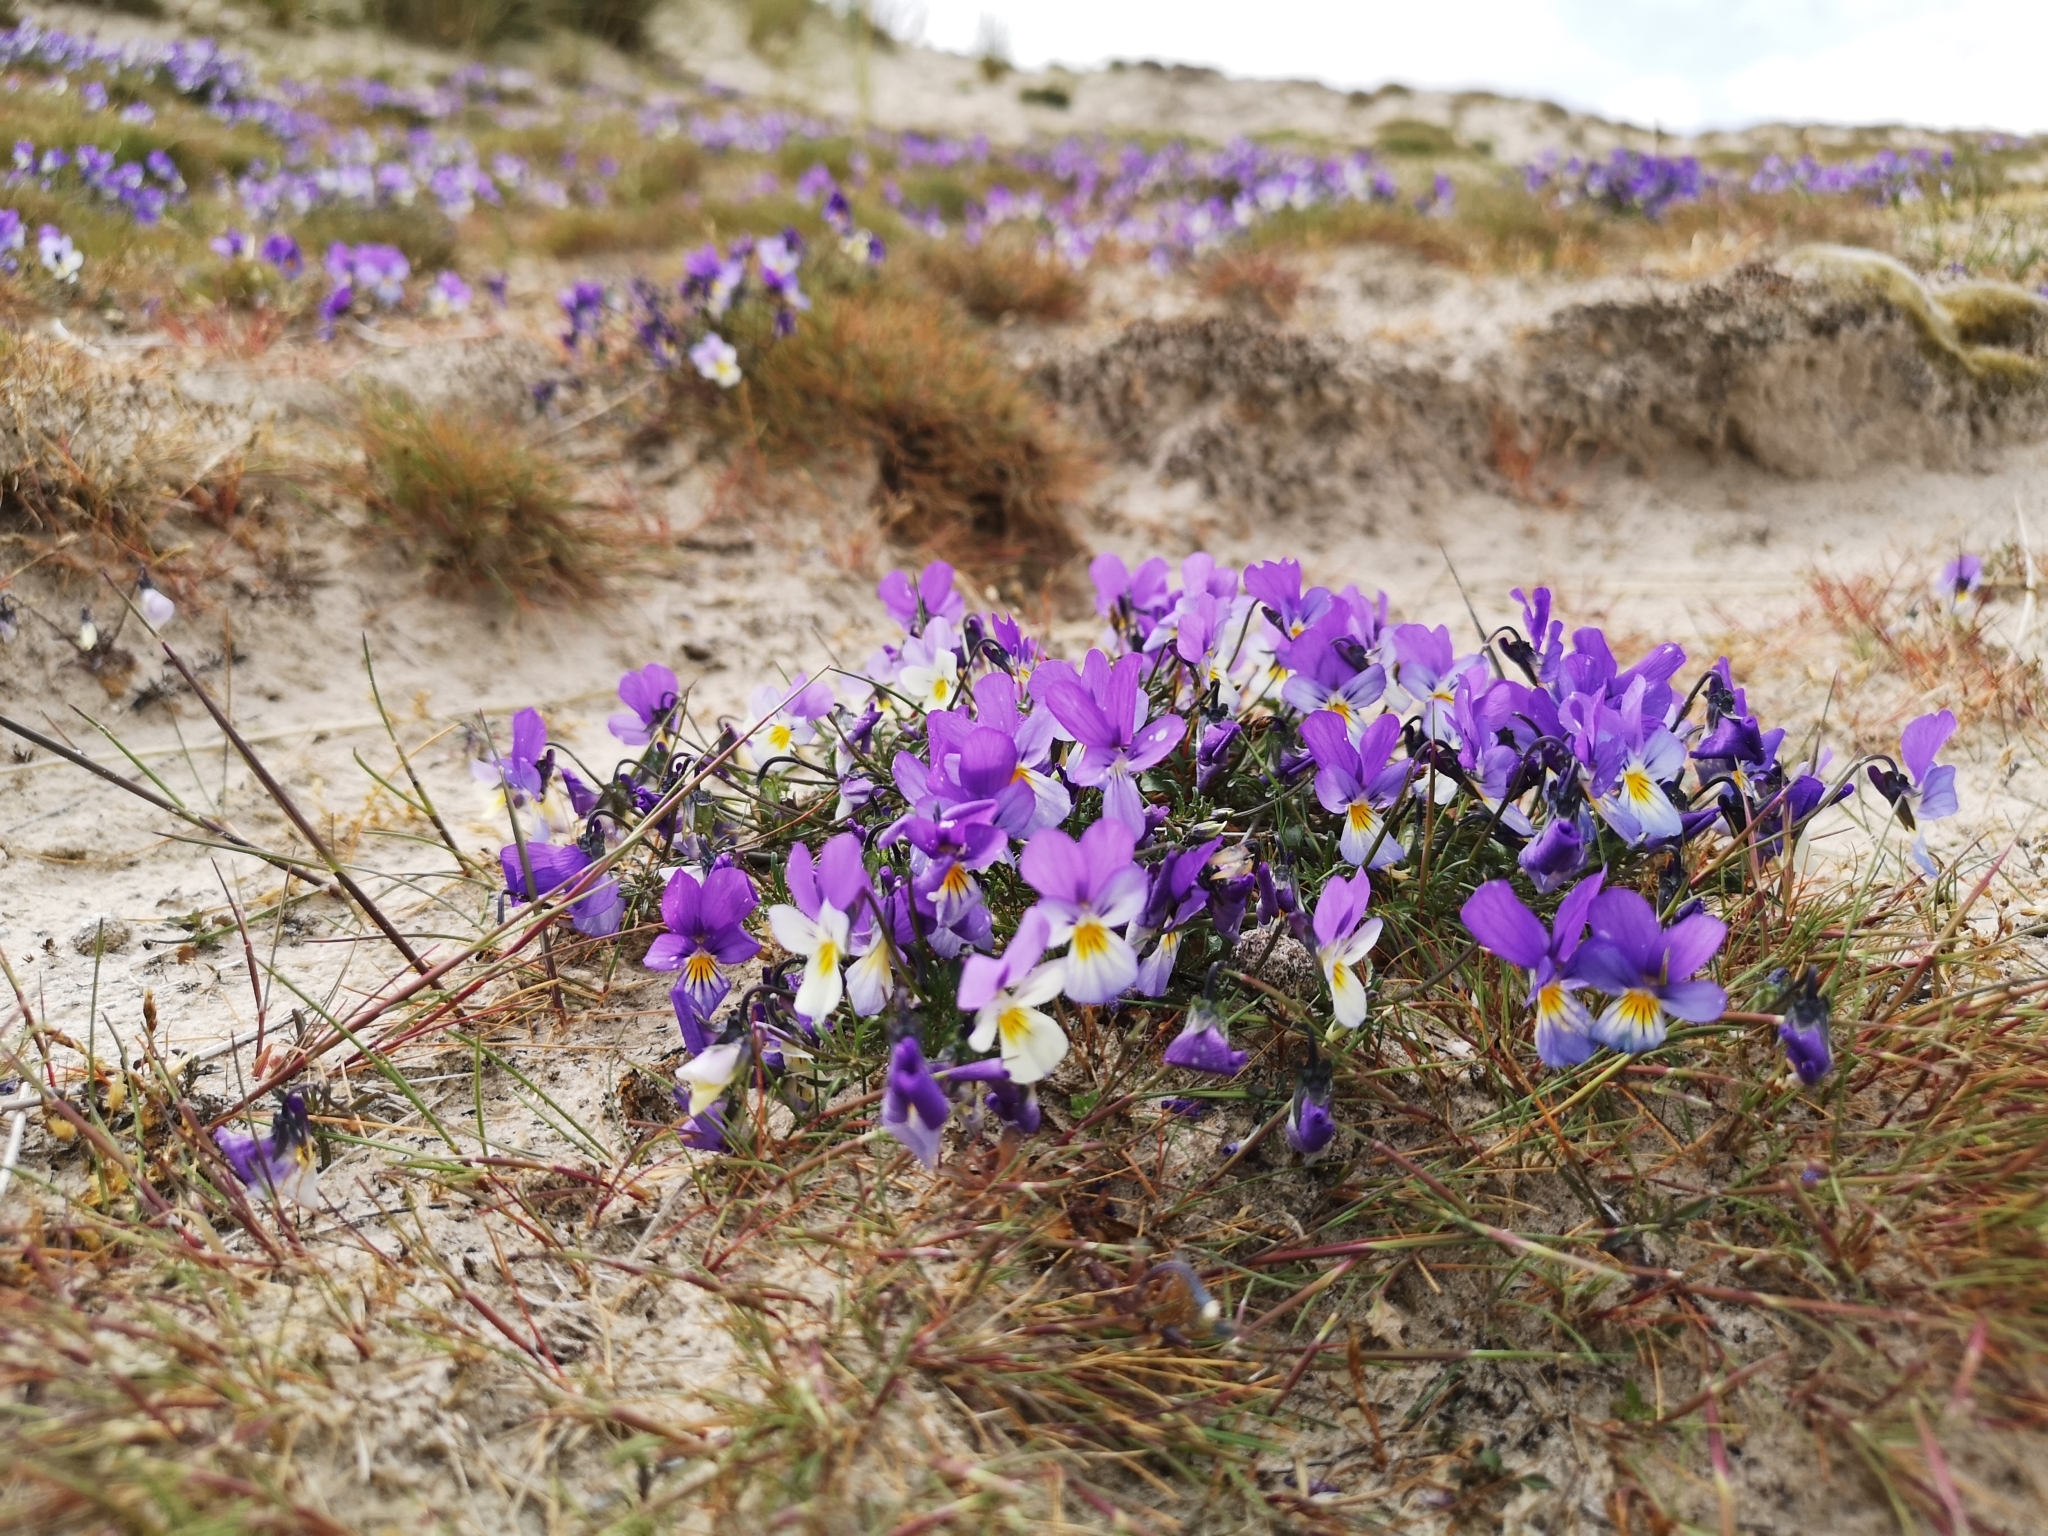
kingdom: Plantae
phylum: Tracheophyta
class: Magnoliopsida
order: Malpighiales
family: Violaceae
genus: Viola
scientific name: Viola tricolor
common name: Pansy
